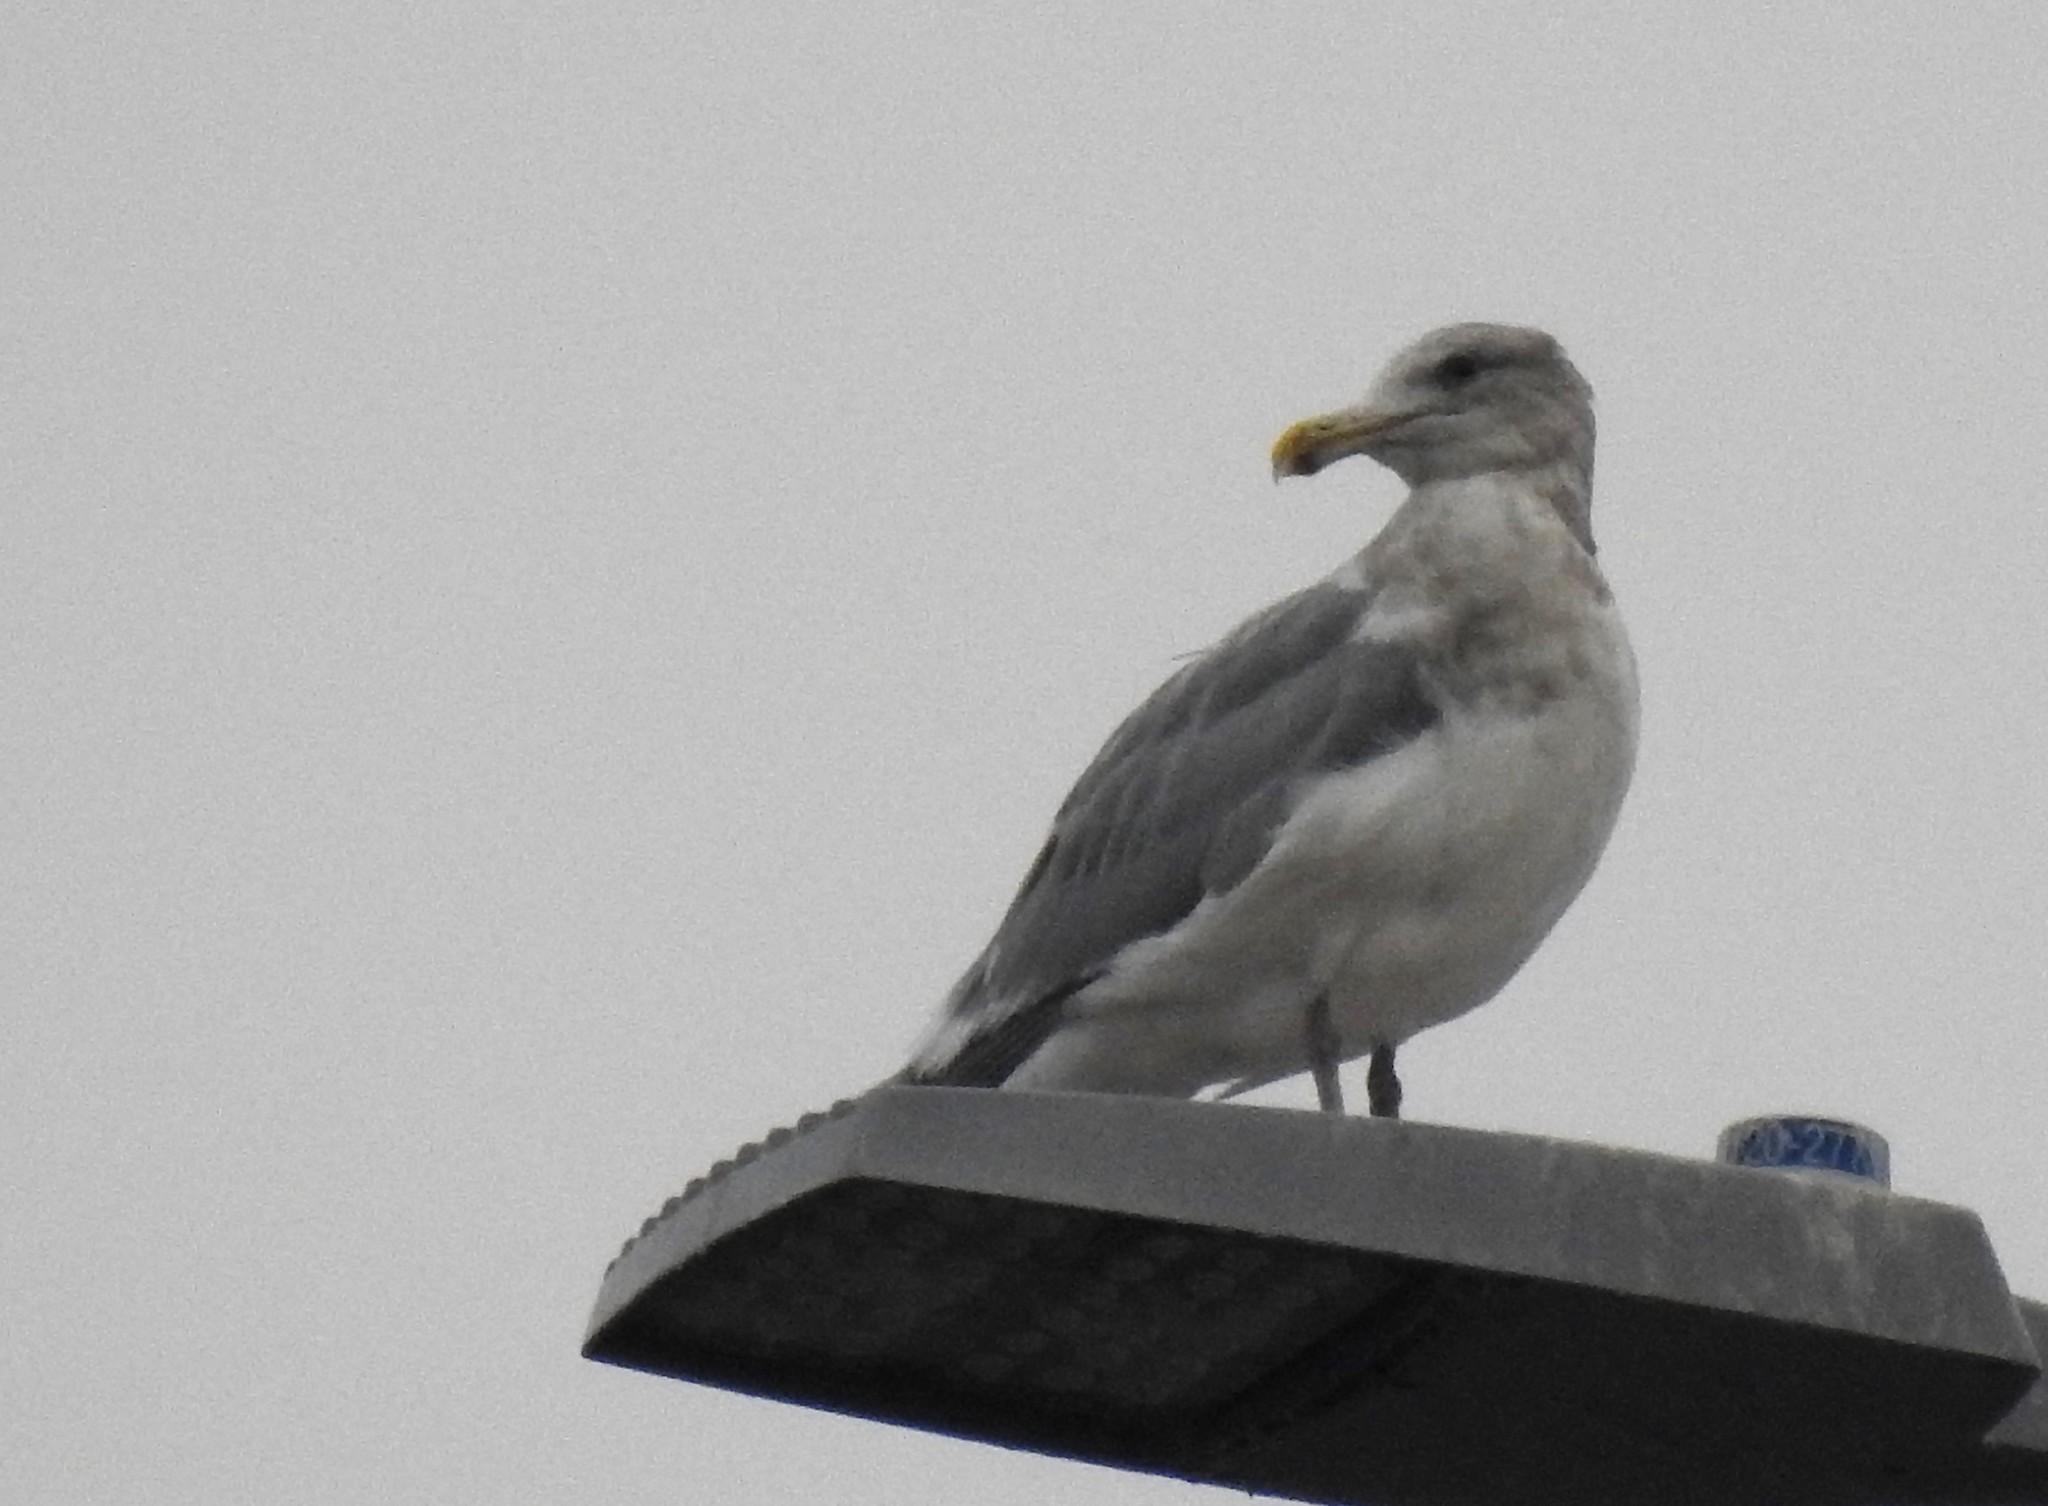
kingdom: Animalia
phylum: Chordata
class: Aves
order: Charadriiformes
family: Laridae
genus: Larus
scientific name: Larus
